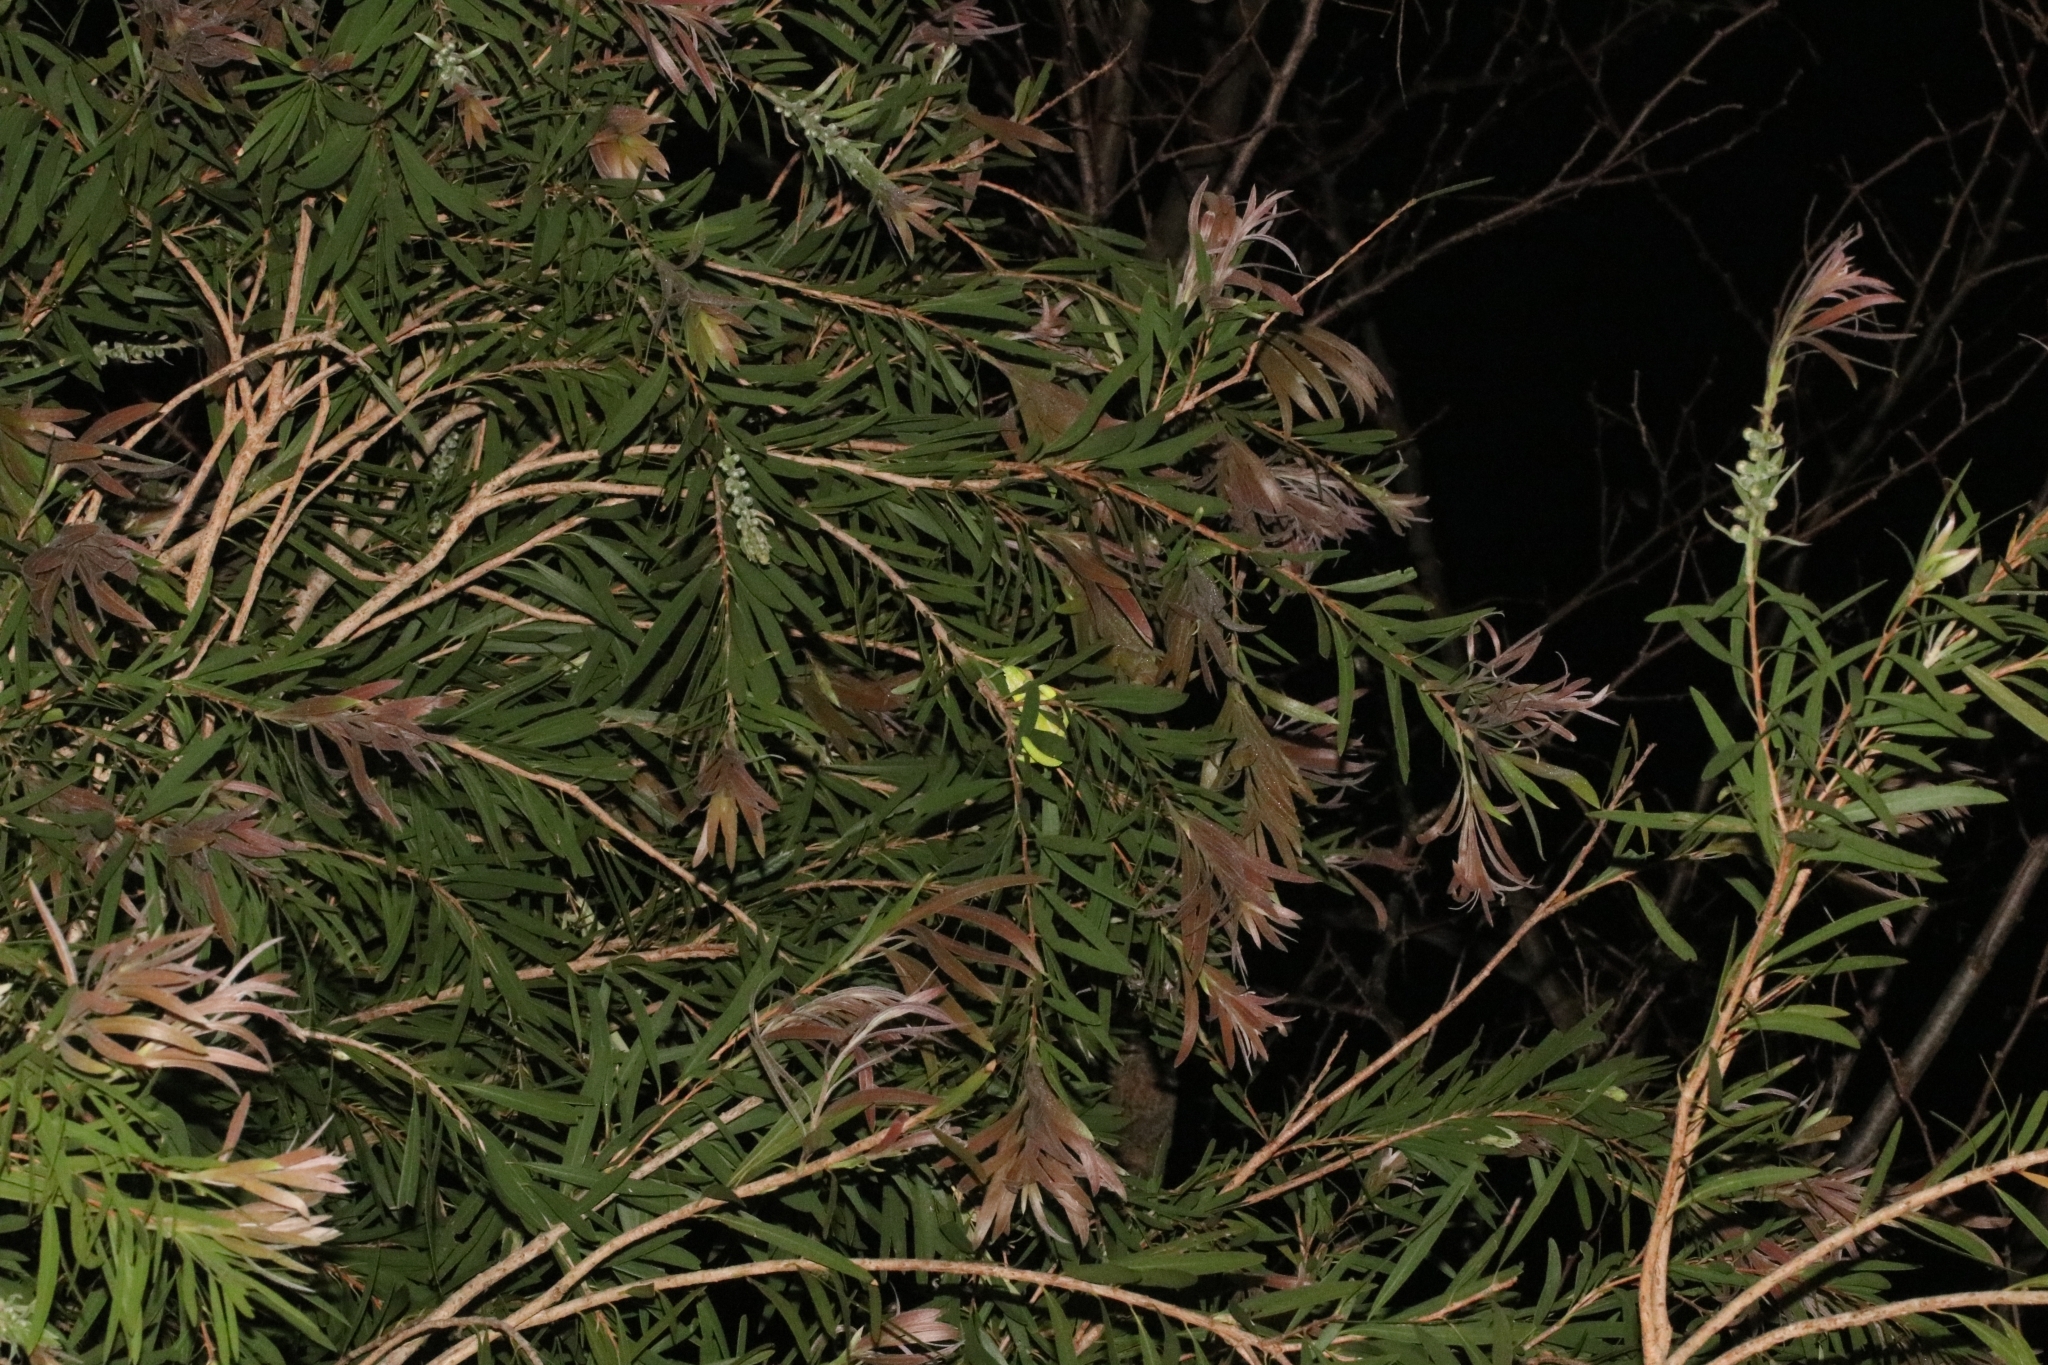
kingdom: Animalia
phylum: Chordata
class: Squamata
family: Chamaeleonidae
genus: Bradypodion
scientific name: Bradypodion pumilum
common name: Cape dwarf chameleon
